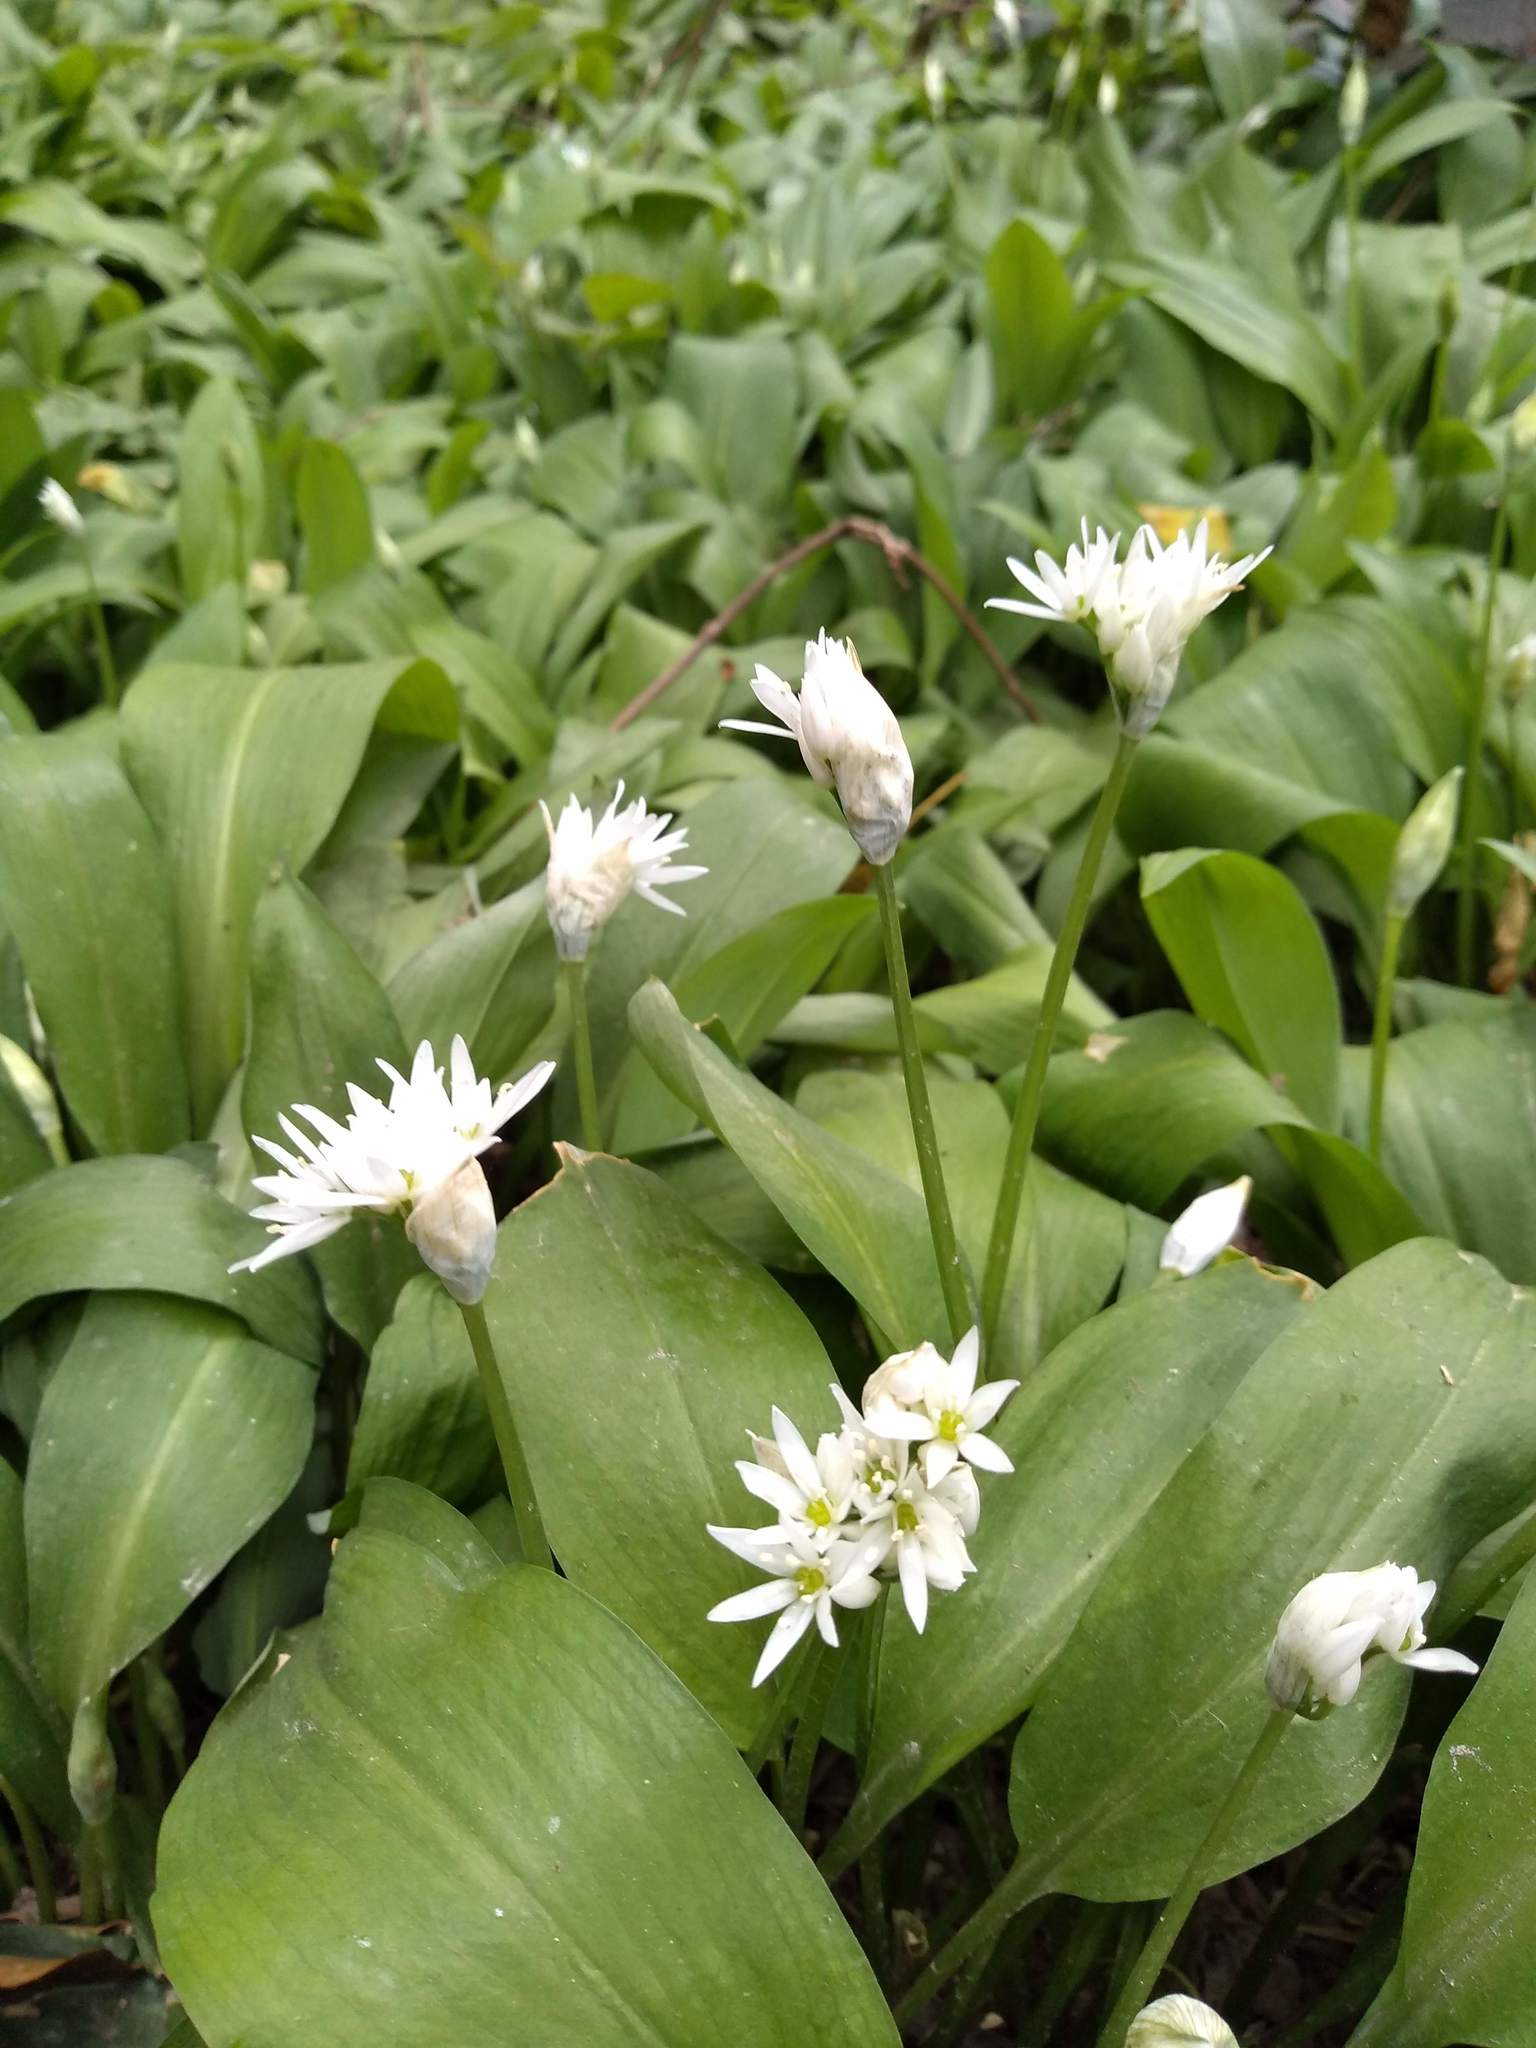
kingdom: Plantae
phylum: Tracheophyta
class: Liliopsida
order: Asparagales
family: Amaryllidaceae
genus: Allium
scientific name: Allium ursinum
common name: Ramsons
